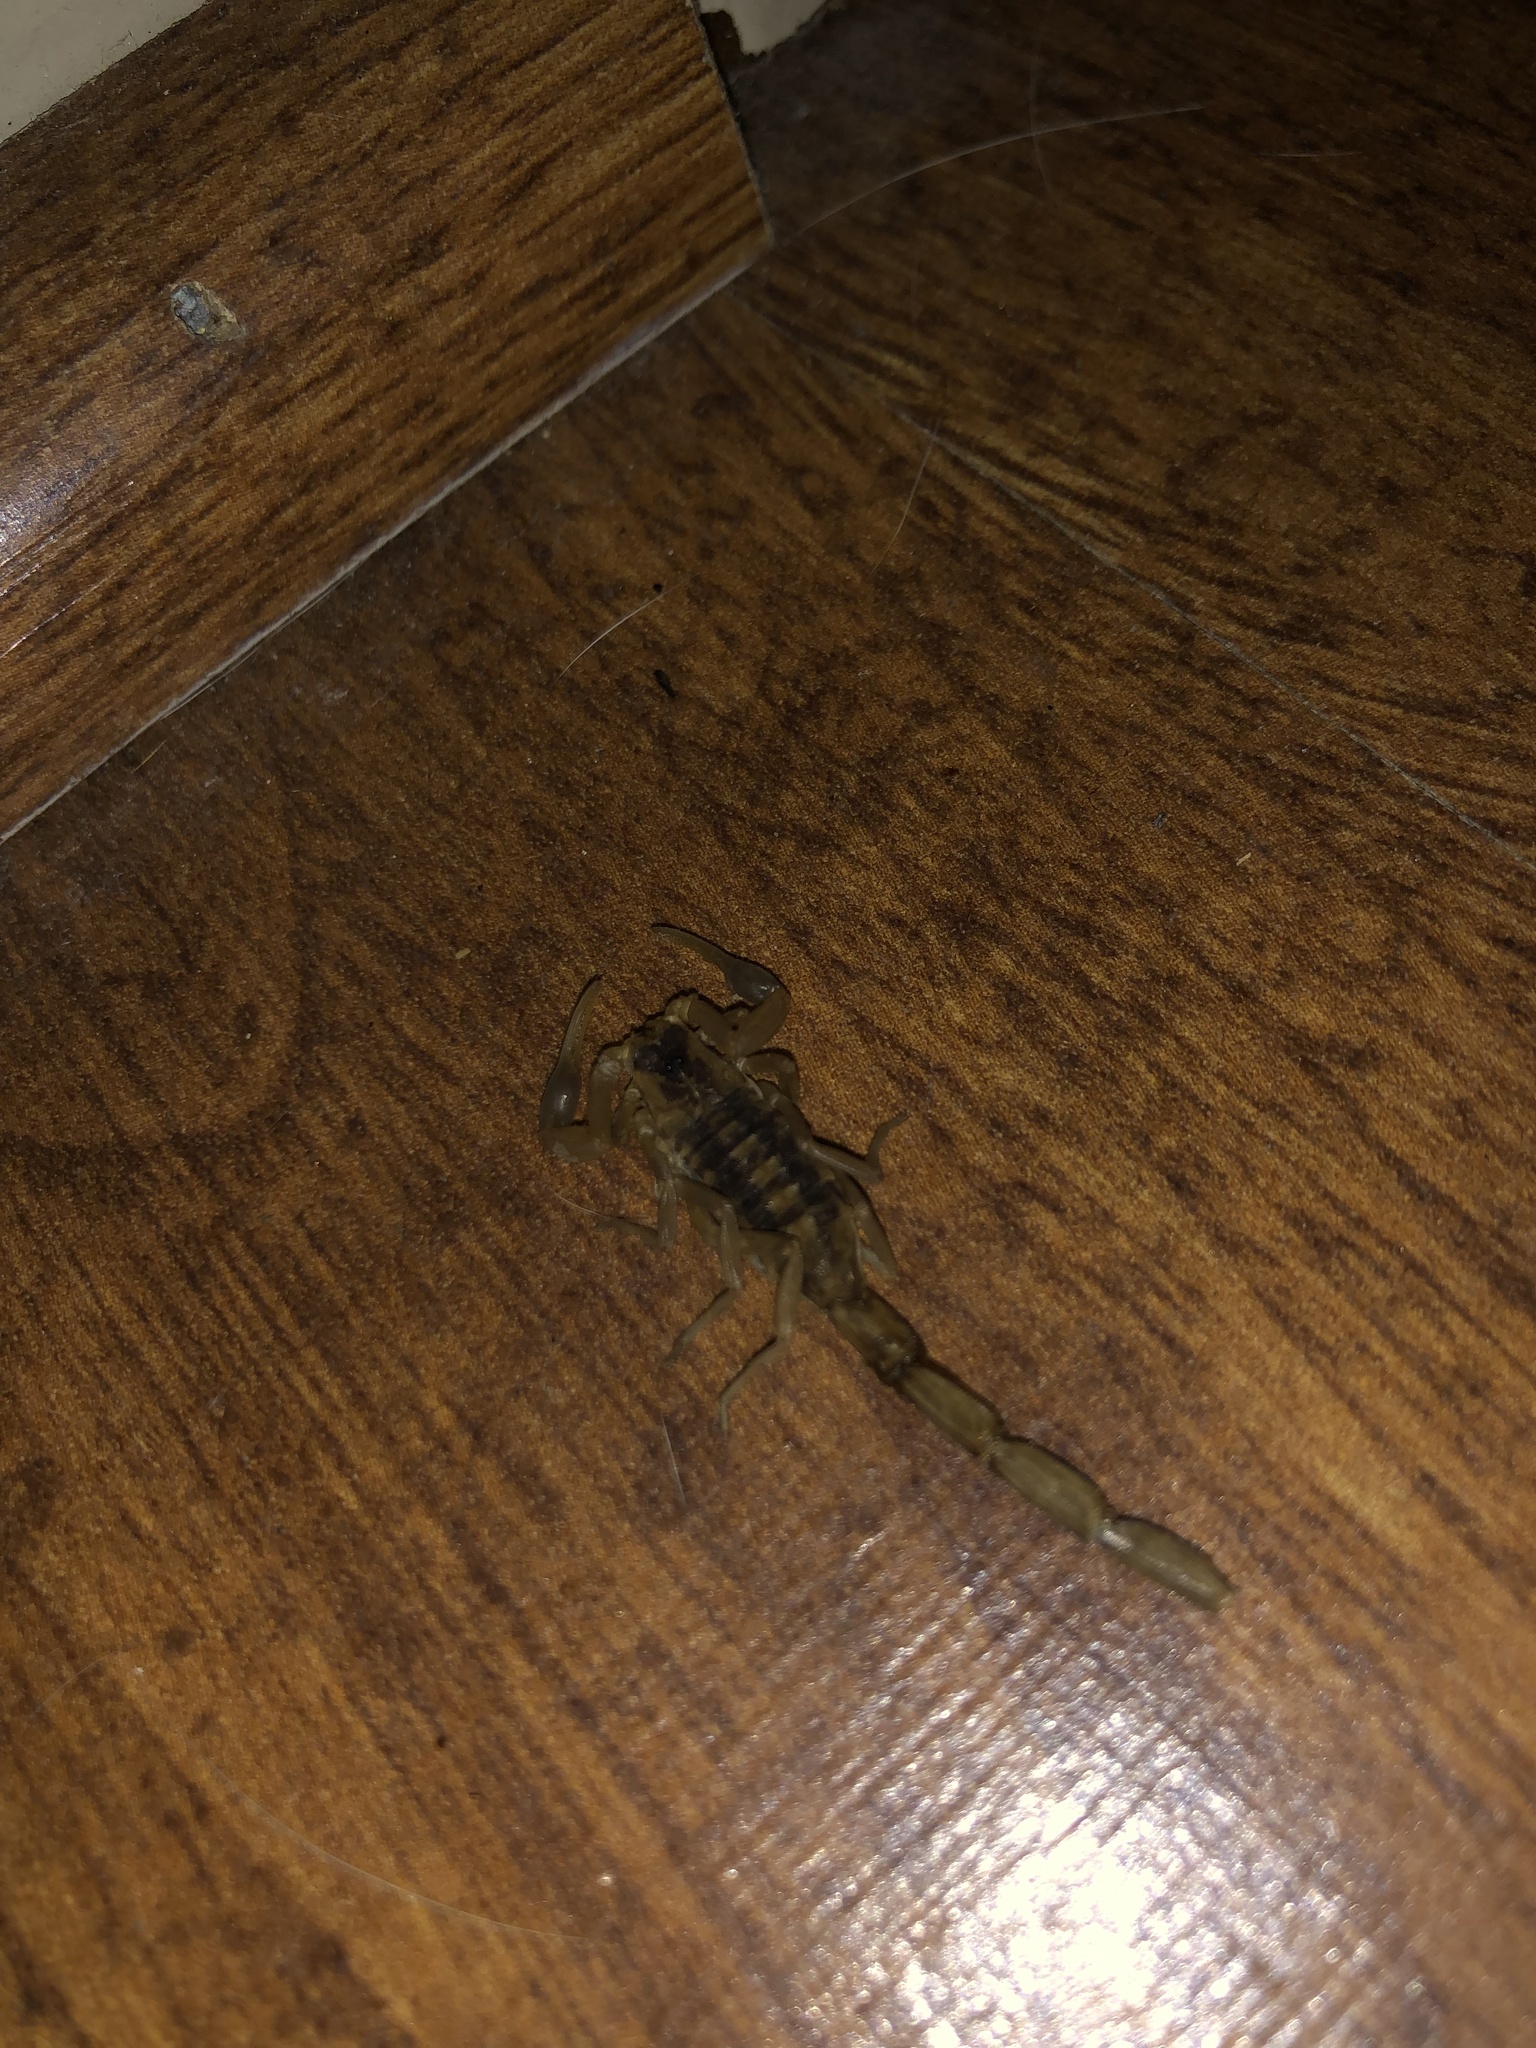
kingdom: Animalia
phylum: Arthropoda
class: Arachnida
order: Scorpiones
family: Buthidae
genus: Centruroides
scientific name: Centruroides vittatus
